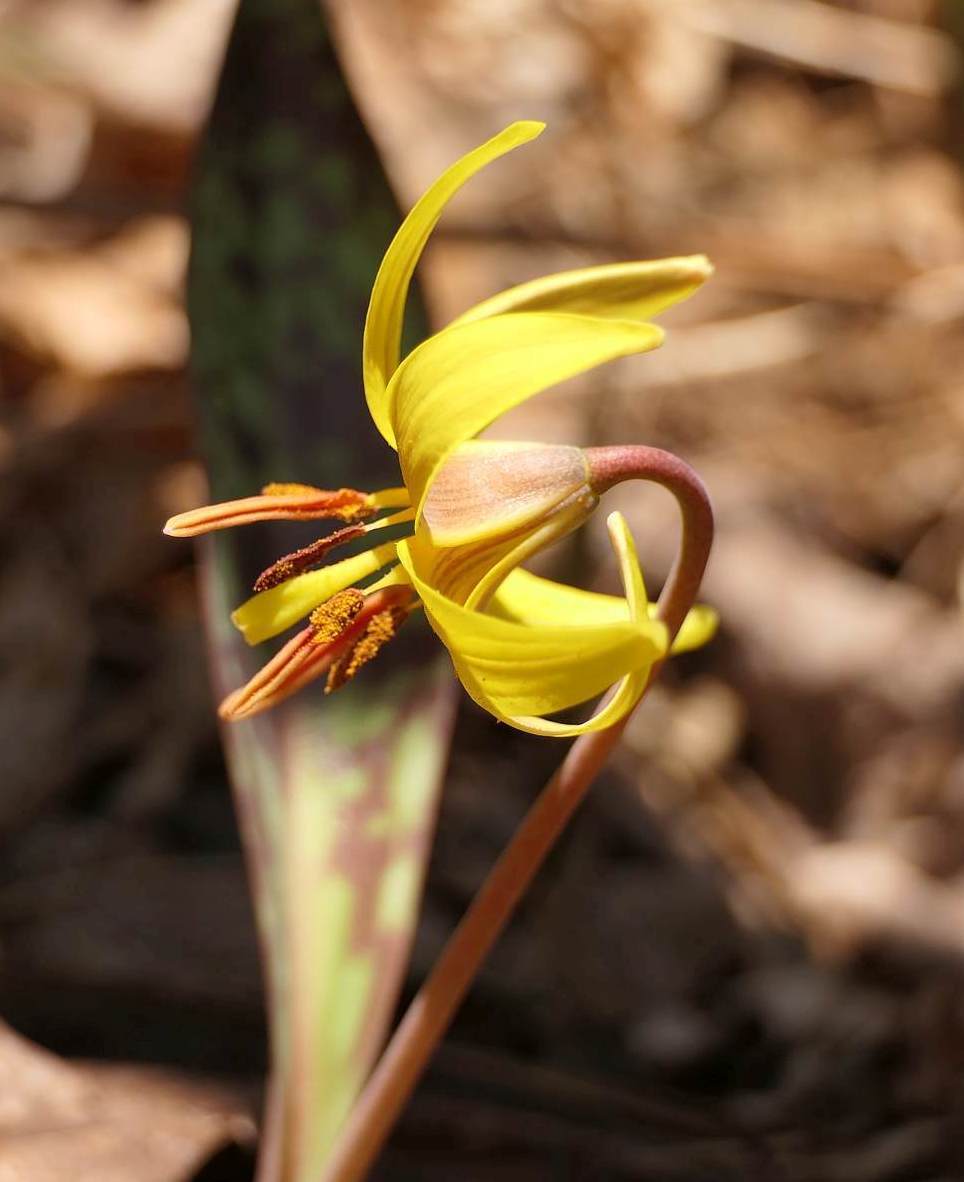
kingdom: Plantae
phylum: Tracheophyta
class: Liliopsida
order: Liliales
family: Liliaceae
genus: Erythronium
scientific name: Erythronium americanum
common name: Yellow adder's-tongue
